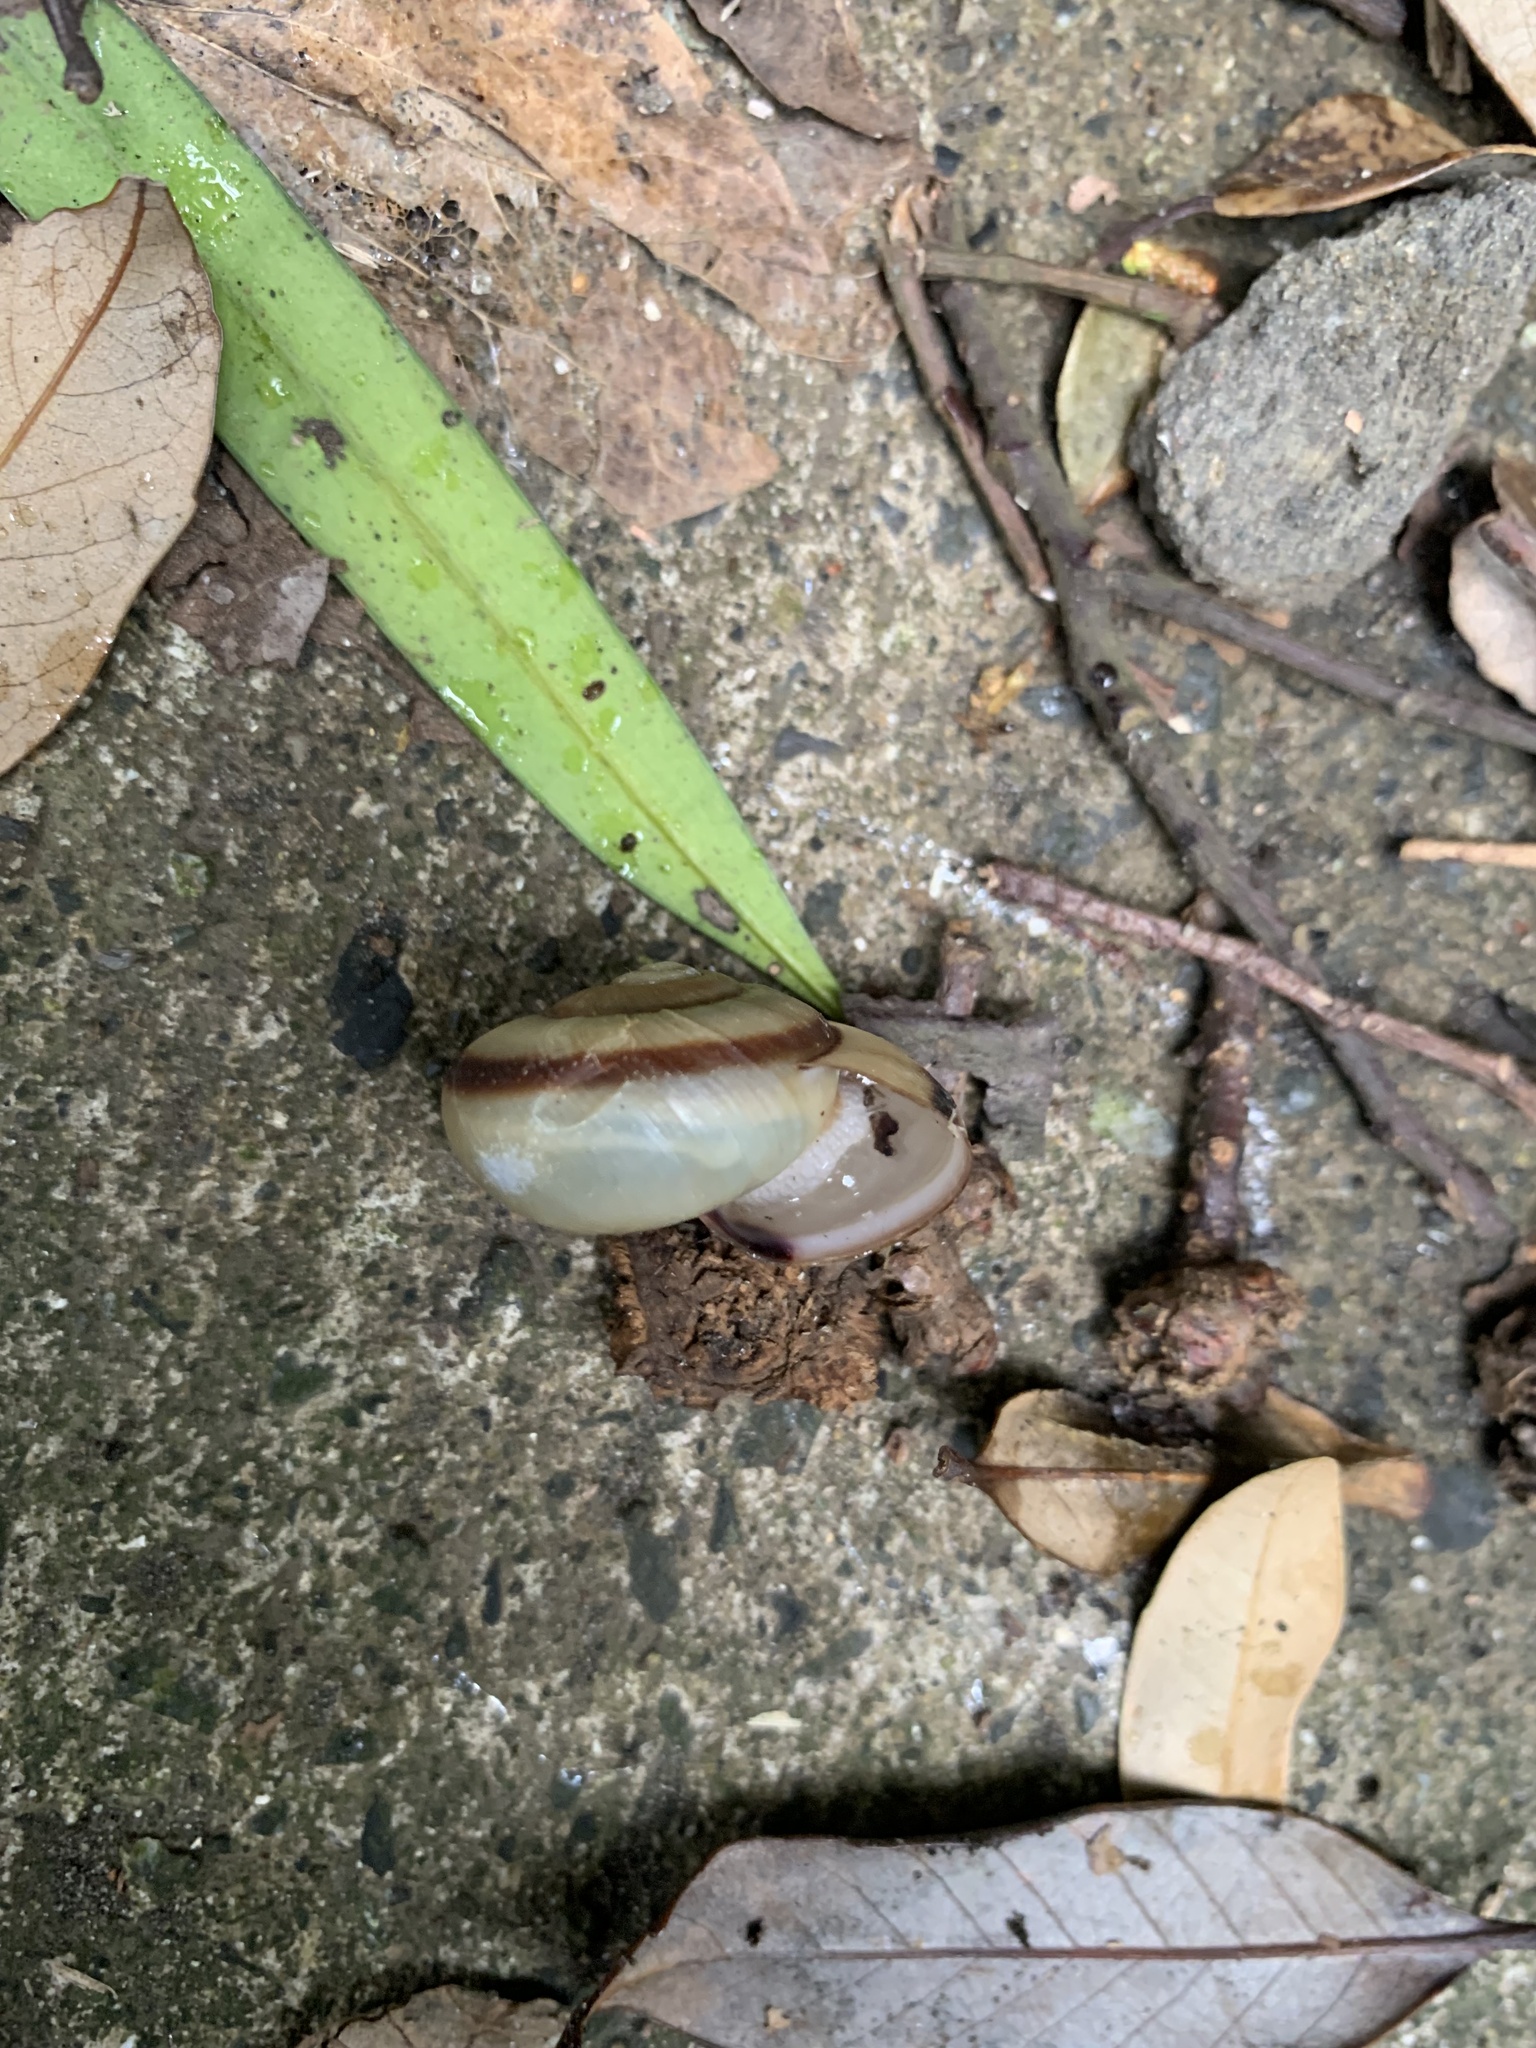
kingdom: Animalia
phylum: Mollusca
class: Gastropoda
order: Stylommatophora
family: Camaenidae
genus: Euhadra
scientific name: Euhadra peliomphala
